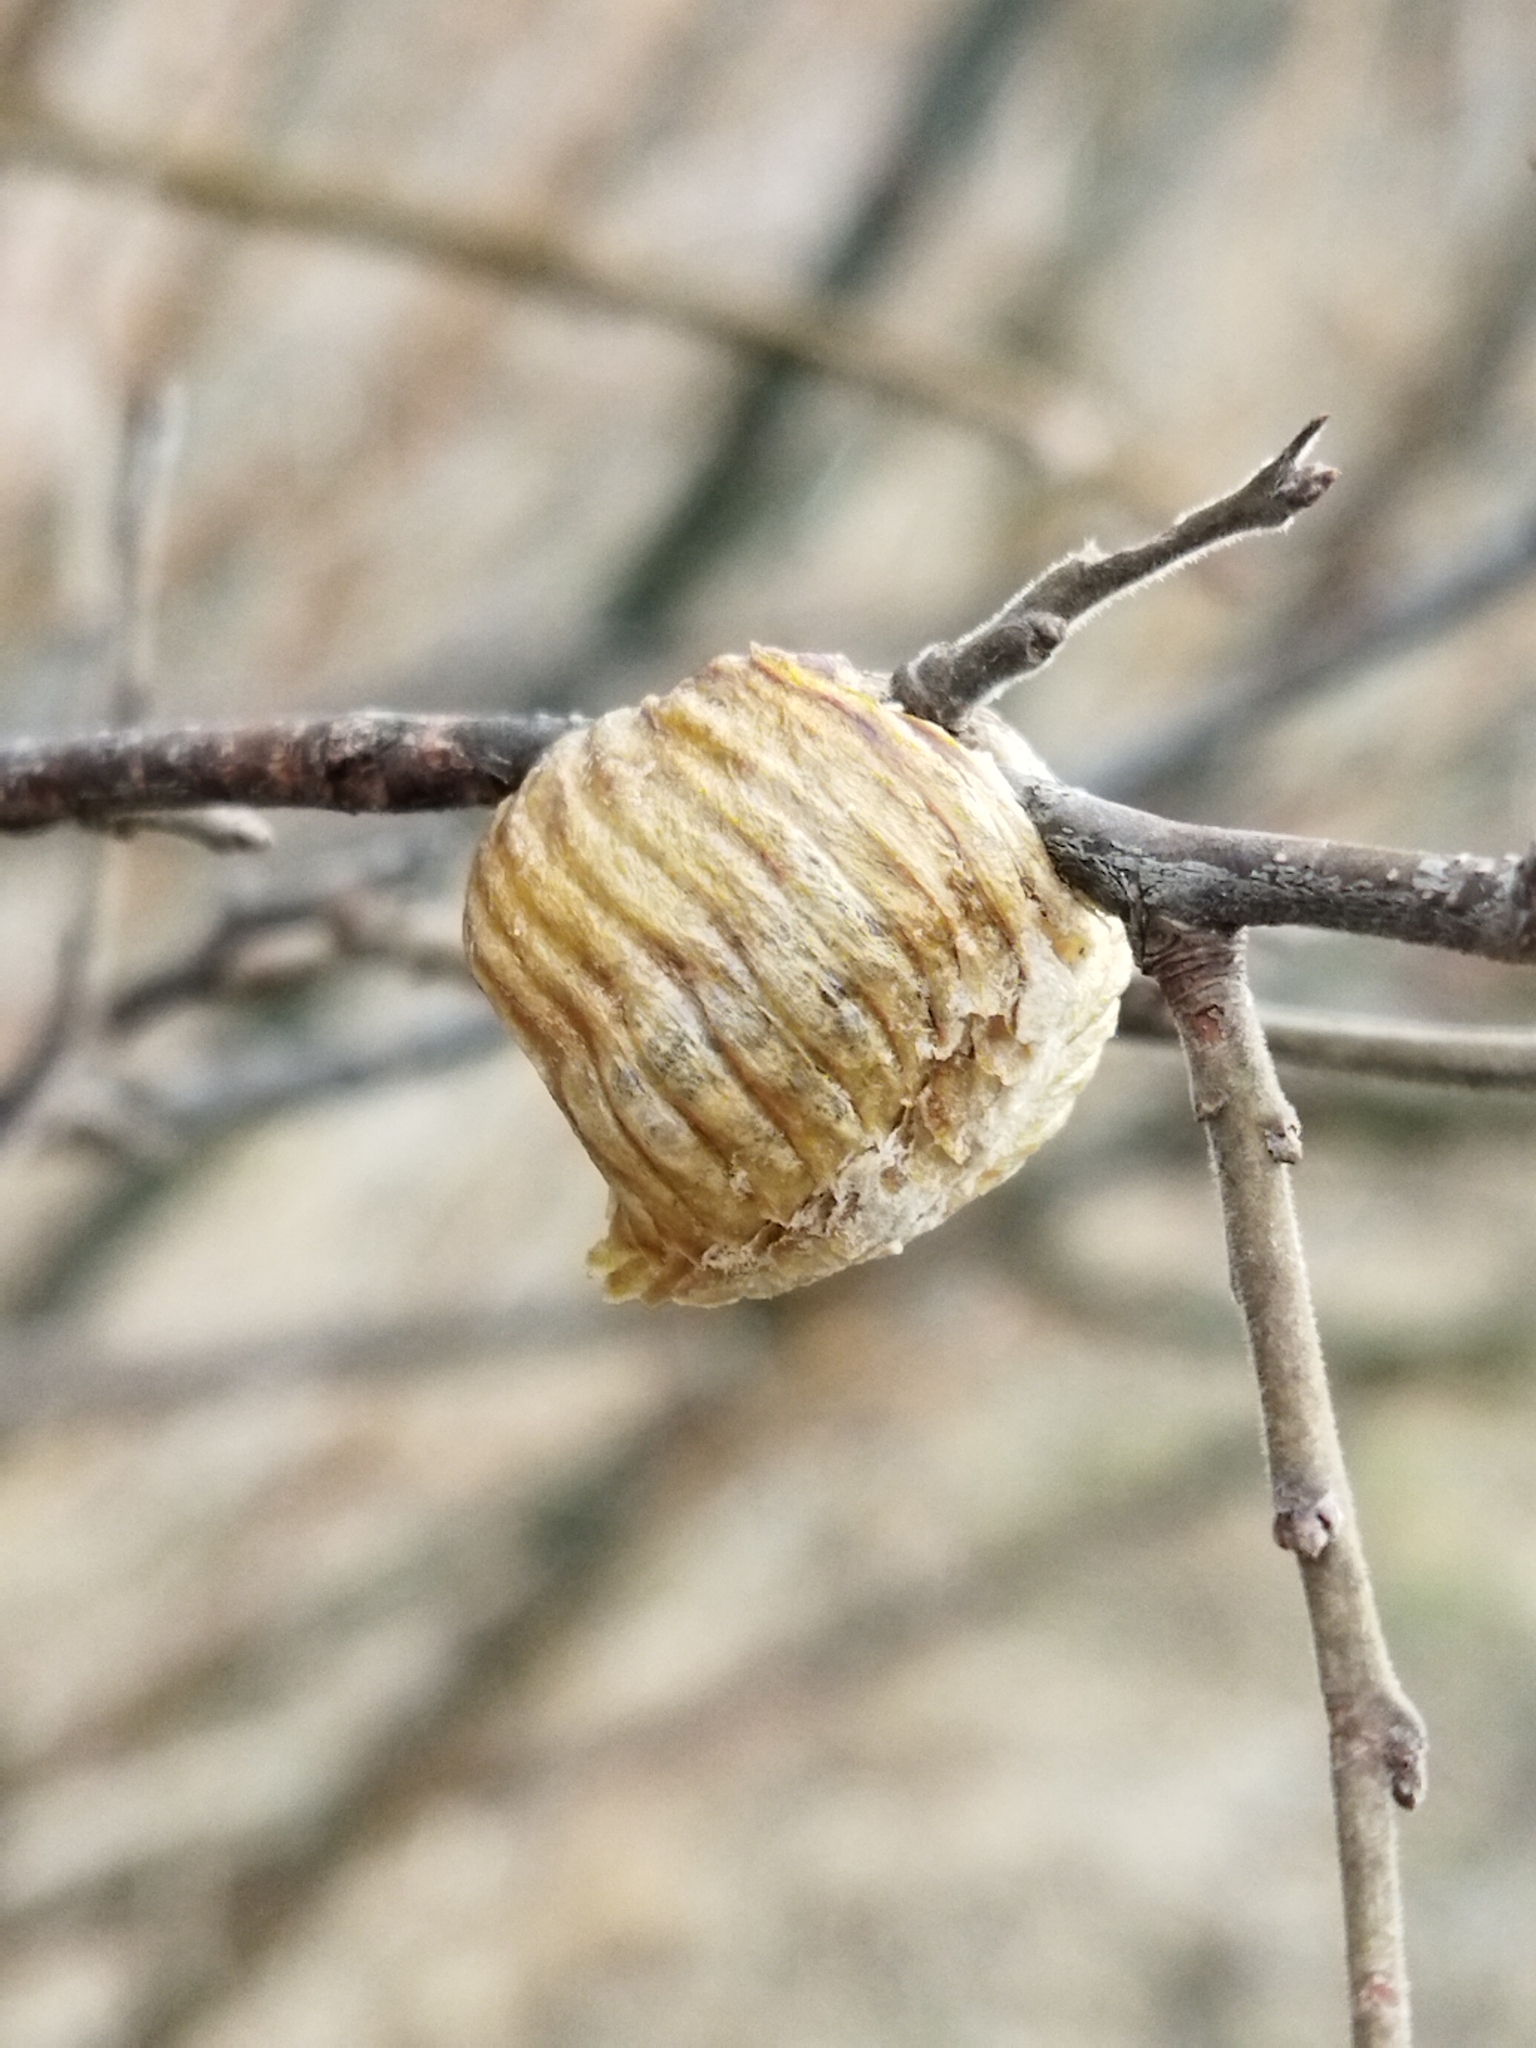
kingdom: Animalia
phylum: Arthropoda
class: Insecta
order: Mantodea
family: Mantidae
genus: Hierodula
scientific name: Hierodula transcaucasica
